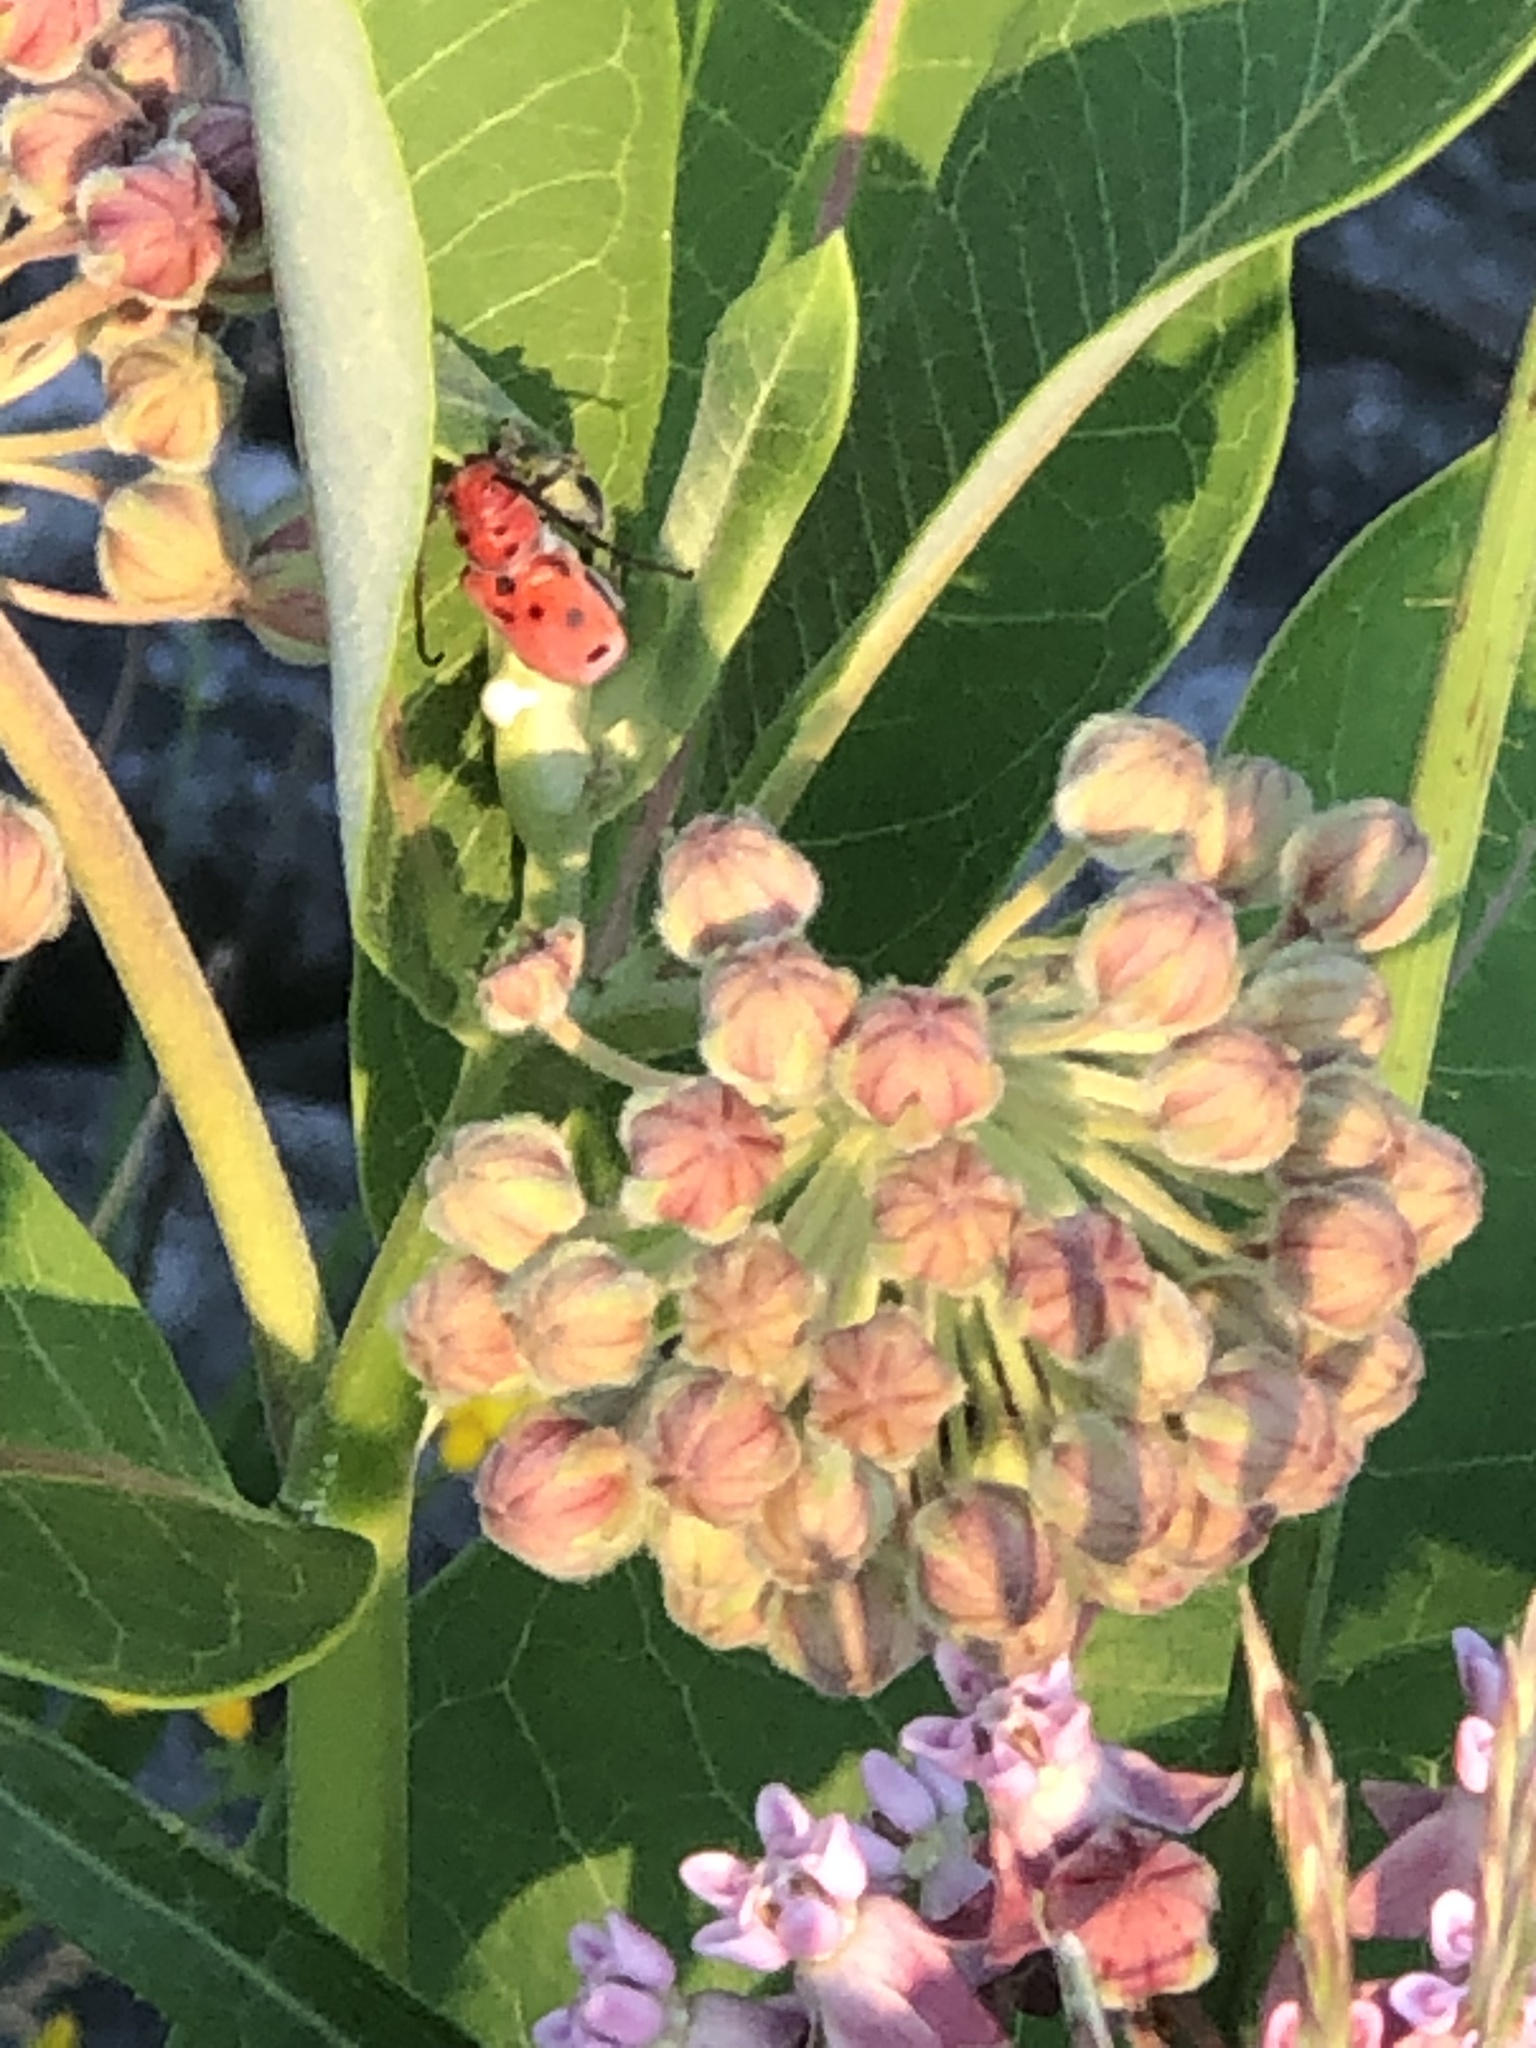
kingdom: Animalia
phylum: Arthropoda
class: Insecta
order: Coleoptera
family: Cerambycidae
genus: Tetraopes
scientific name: Tetraopes tetrophthalmus
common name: Red milkweed beetle
